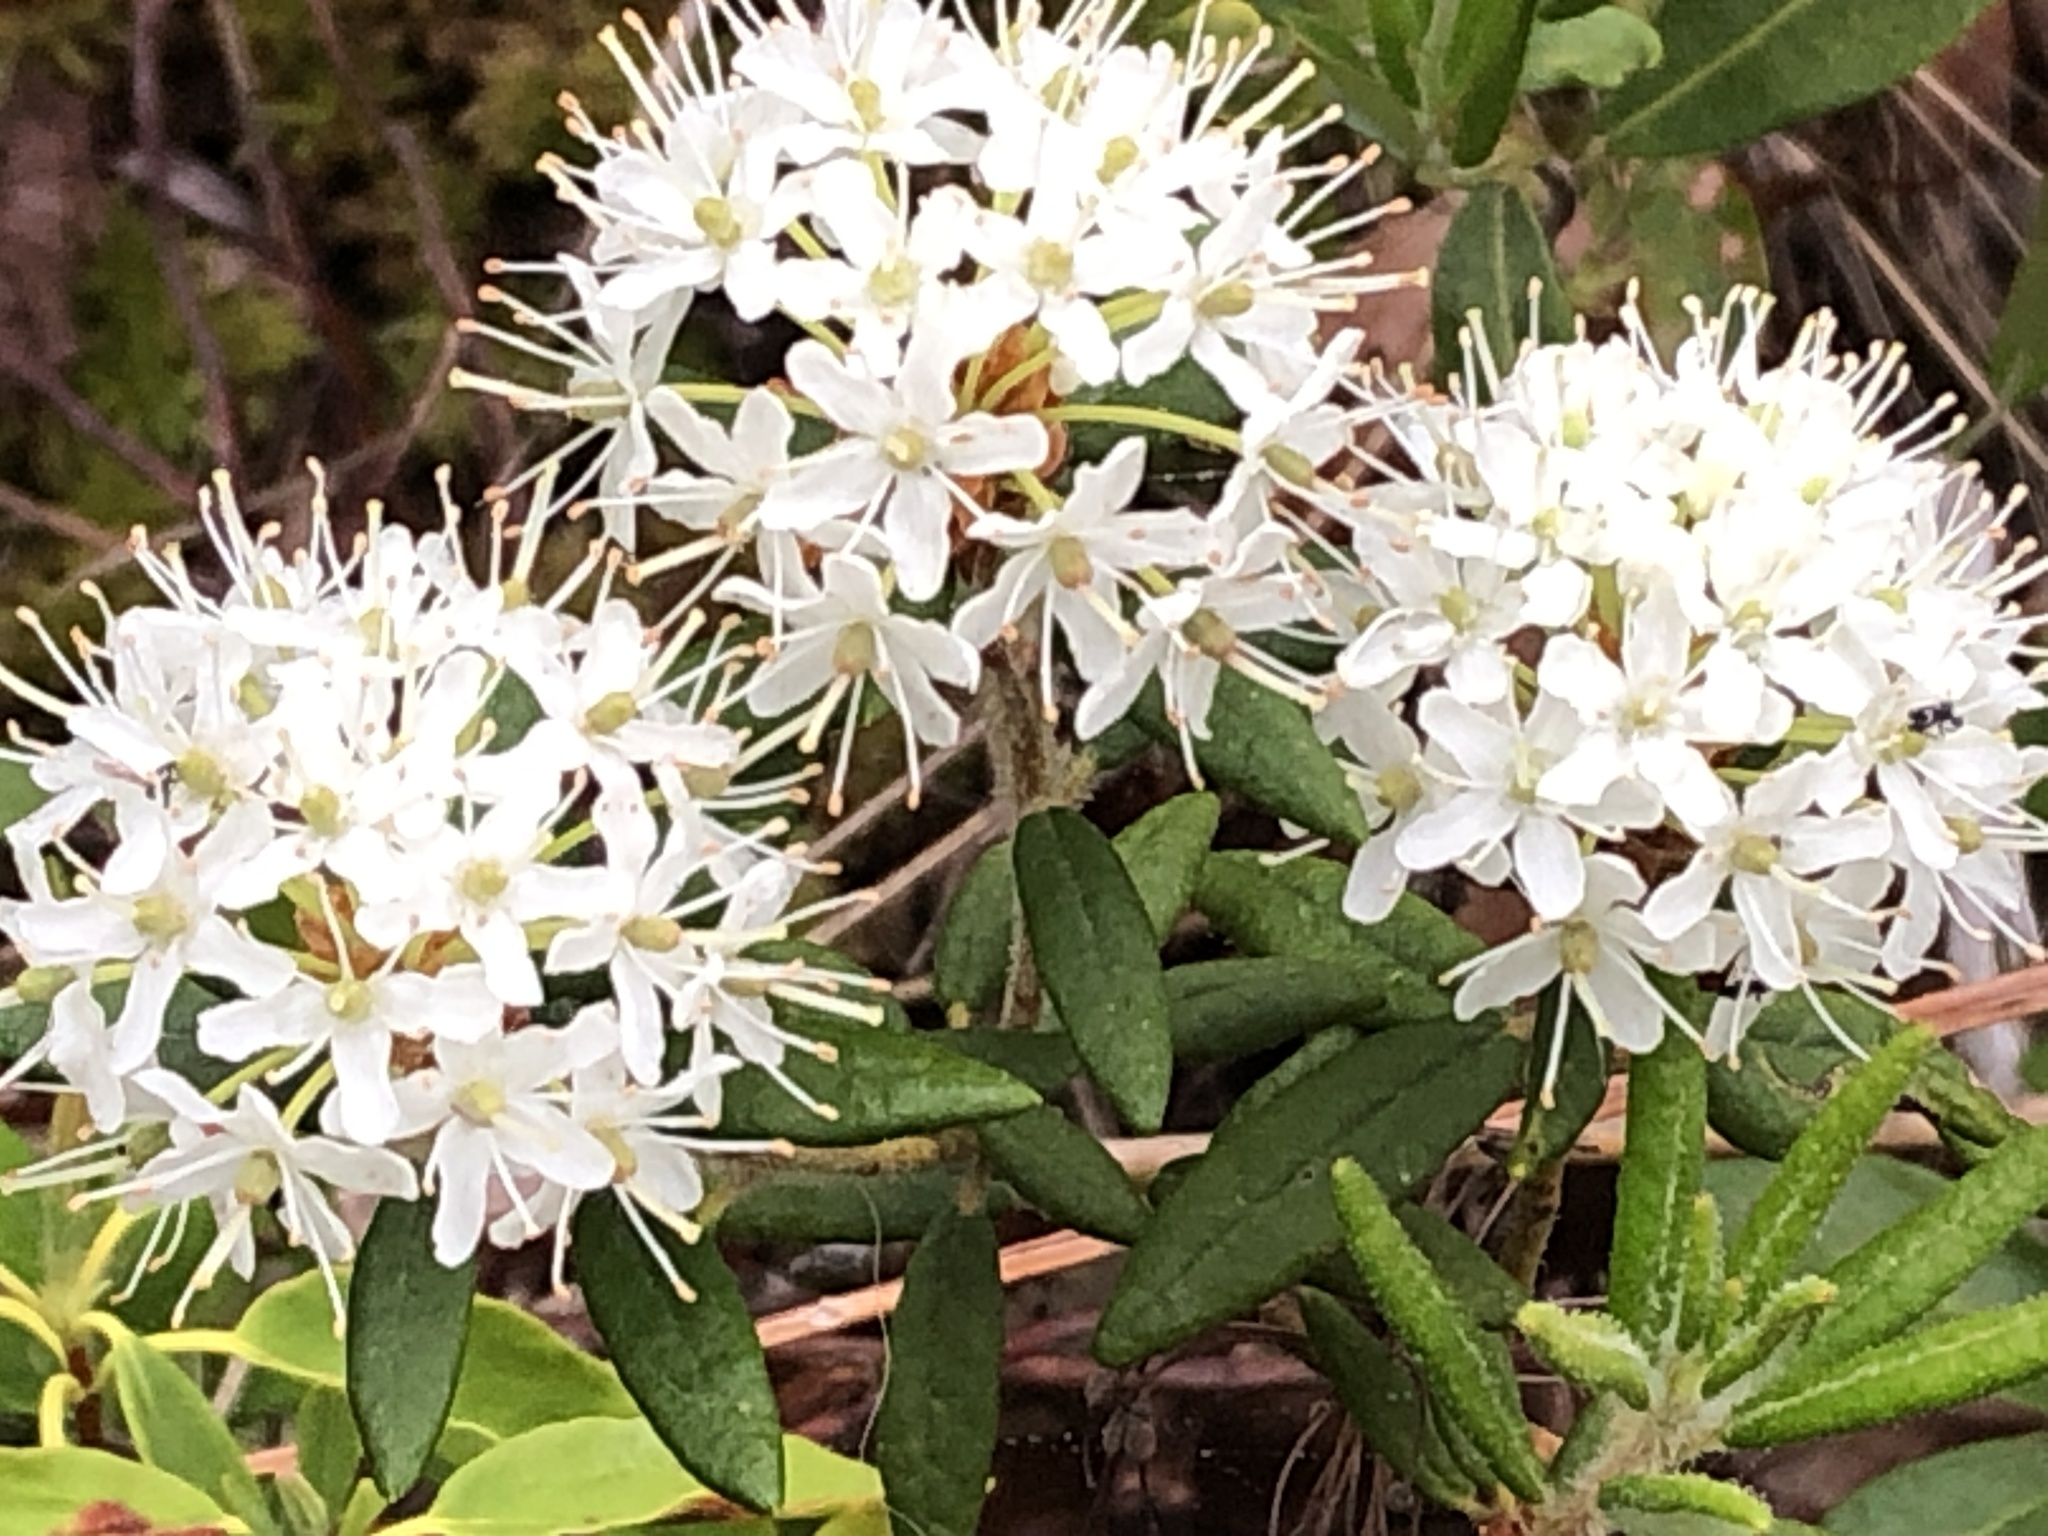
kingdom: Plantae
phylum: Tracheophyta
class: Magnoliopsida
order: Ericales
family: Ericaceae
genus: Rhododendron
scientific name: Rhododendron groenlandicum
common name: Bog labrador tea
